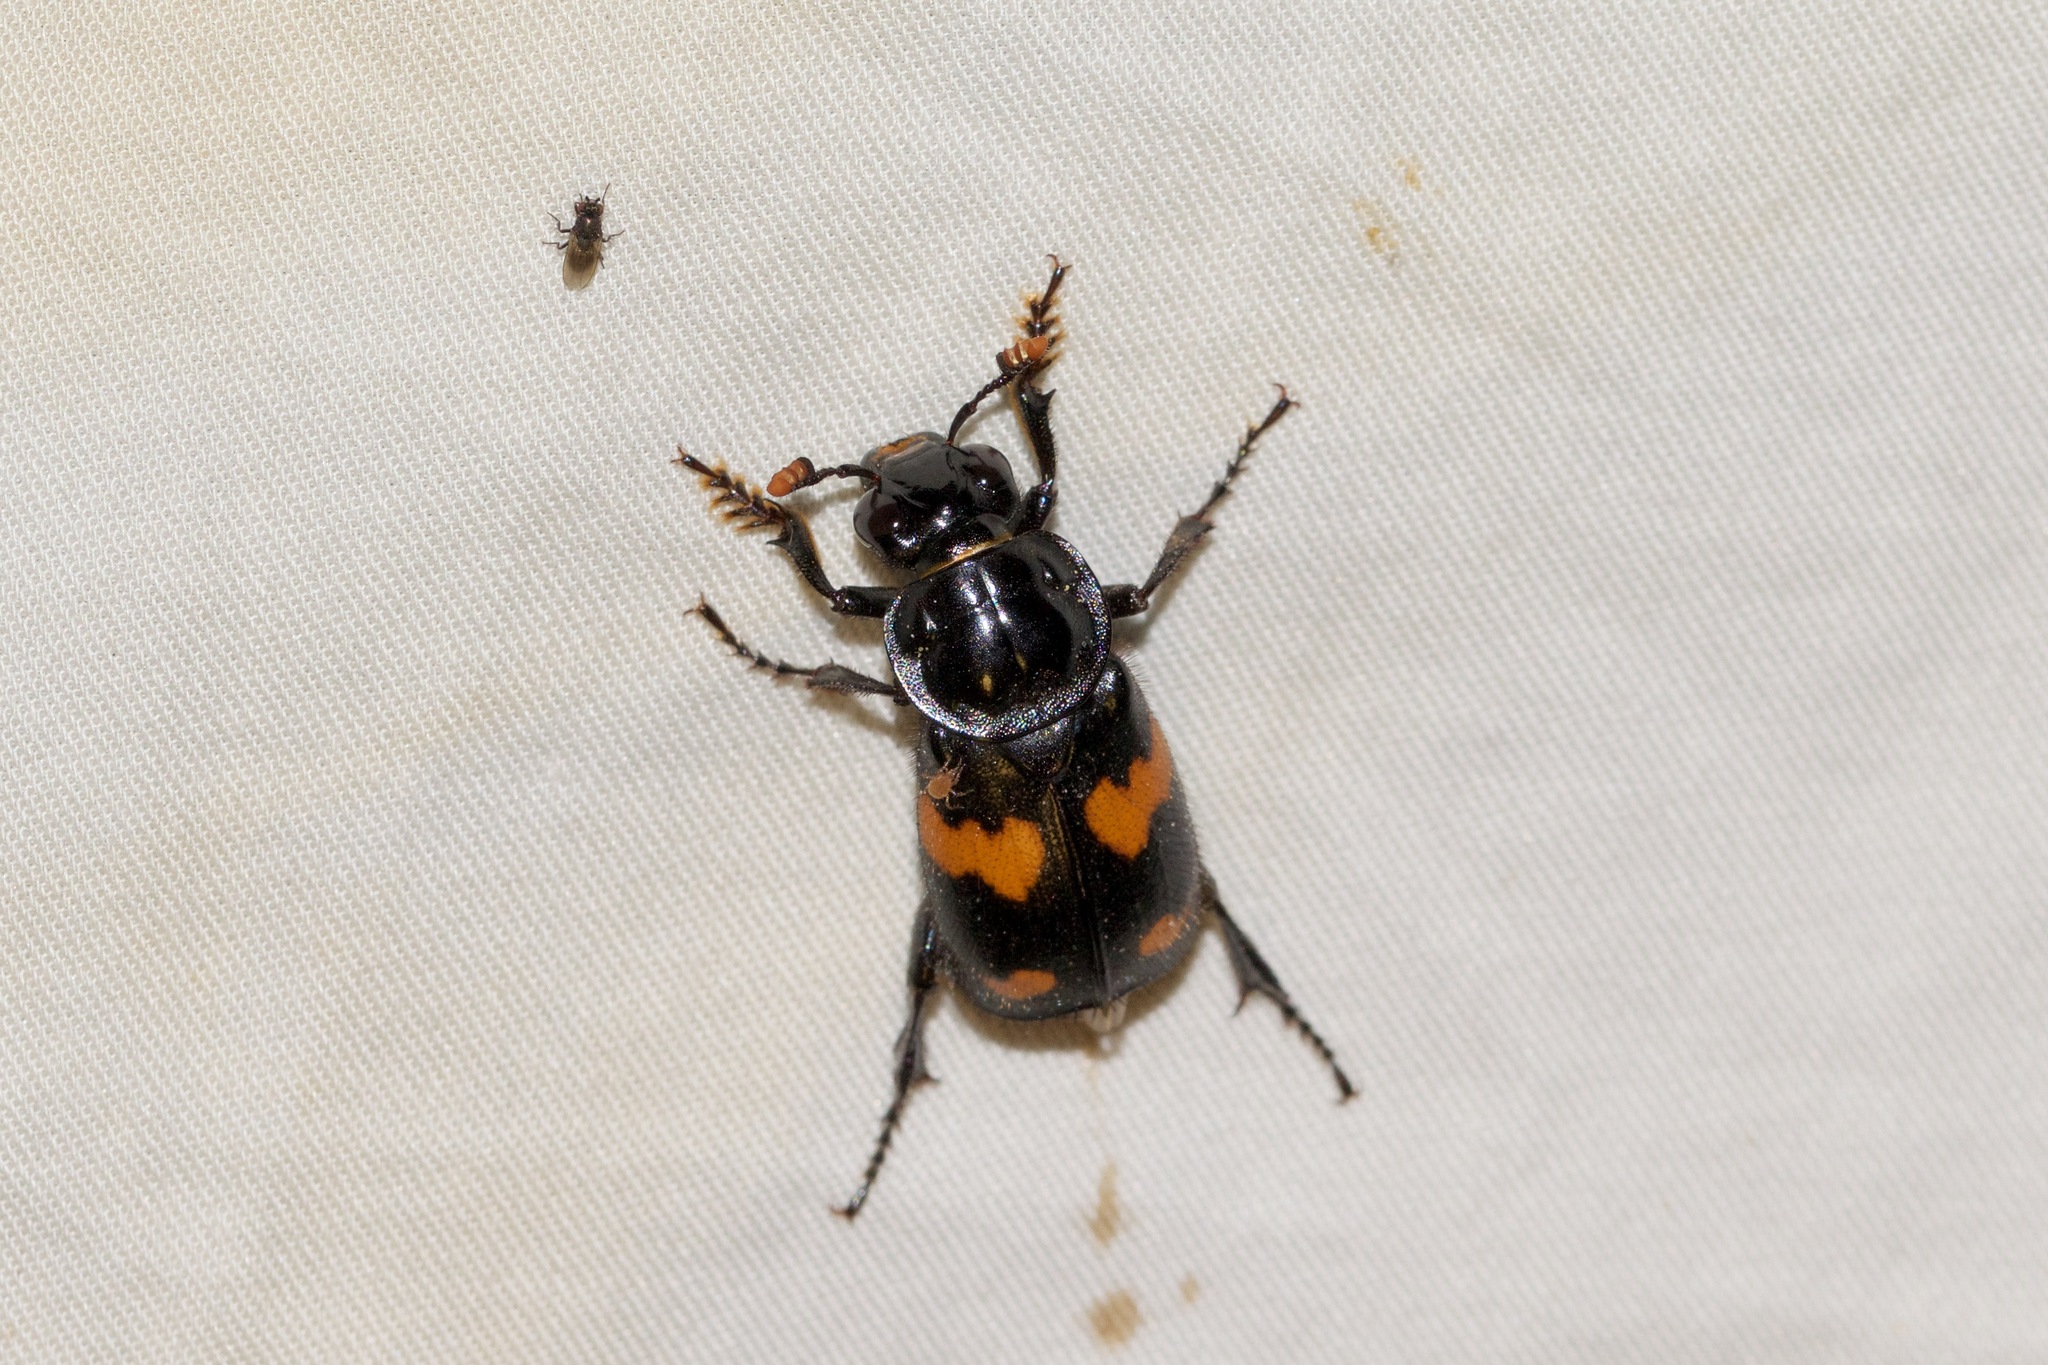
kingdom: Animalia
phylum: Arthropoda
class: Insecta
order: Coleoptera
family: Staphylinidae
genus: Nicrophorus
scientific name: Nicrophorus orbicollis
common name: Roundneck sexton beetle
